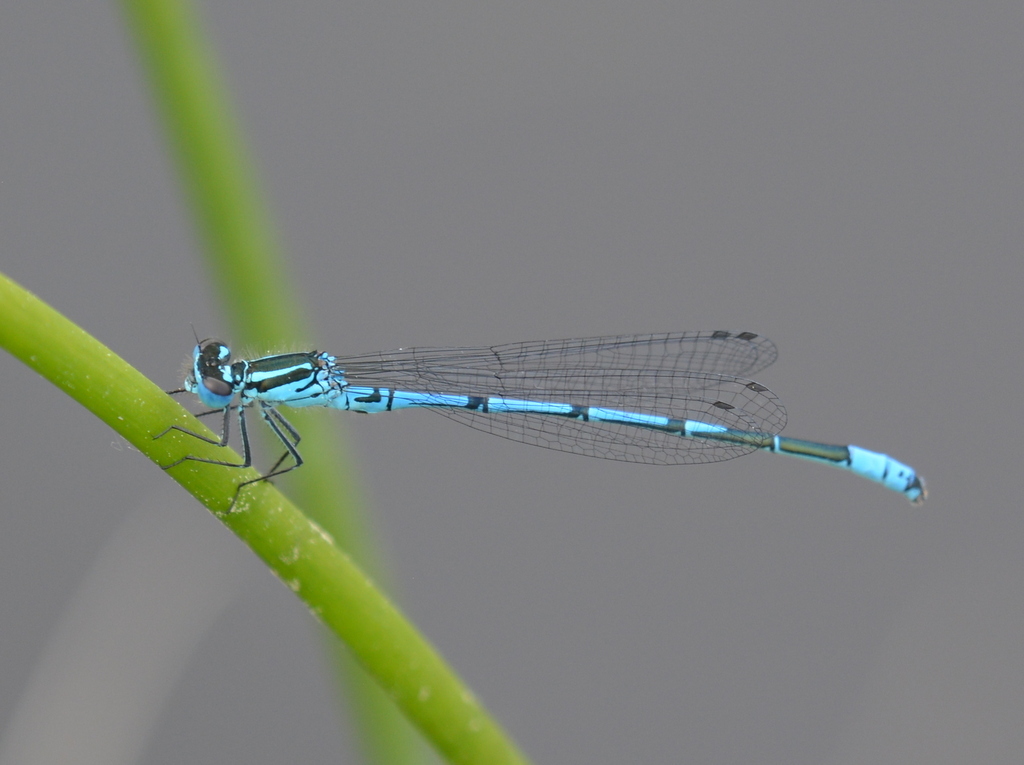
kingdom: Animalia
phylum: Arthropoda
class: Insecta
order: Odonata
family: Coenagrionidae
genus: Coenagrion
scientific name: Coenagrion puella
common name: Azure damselfly
